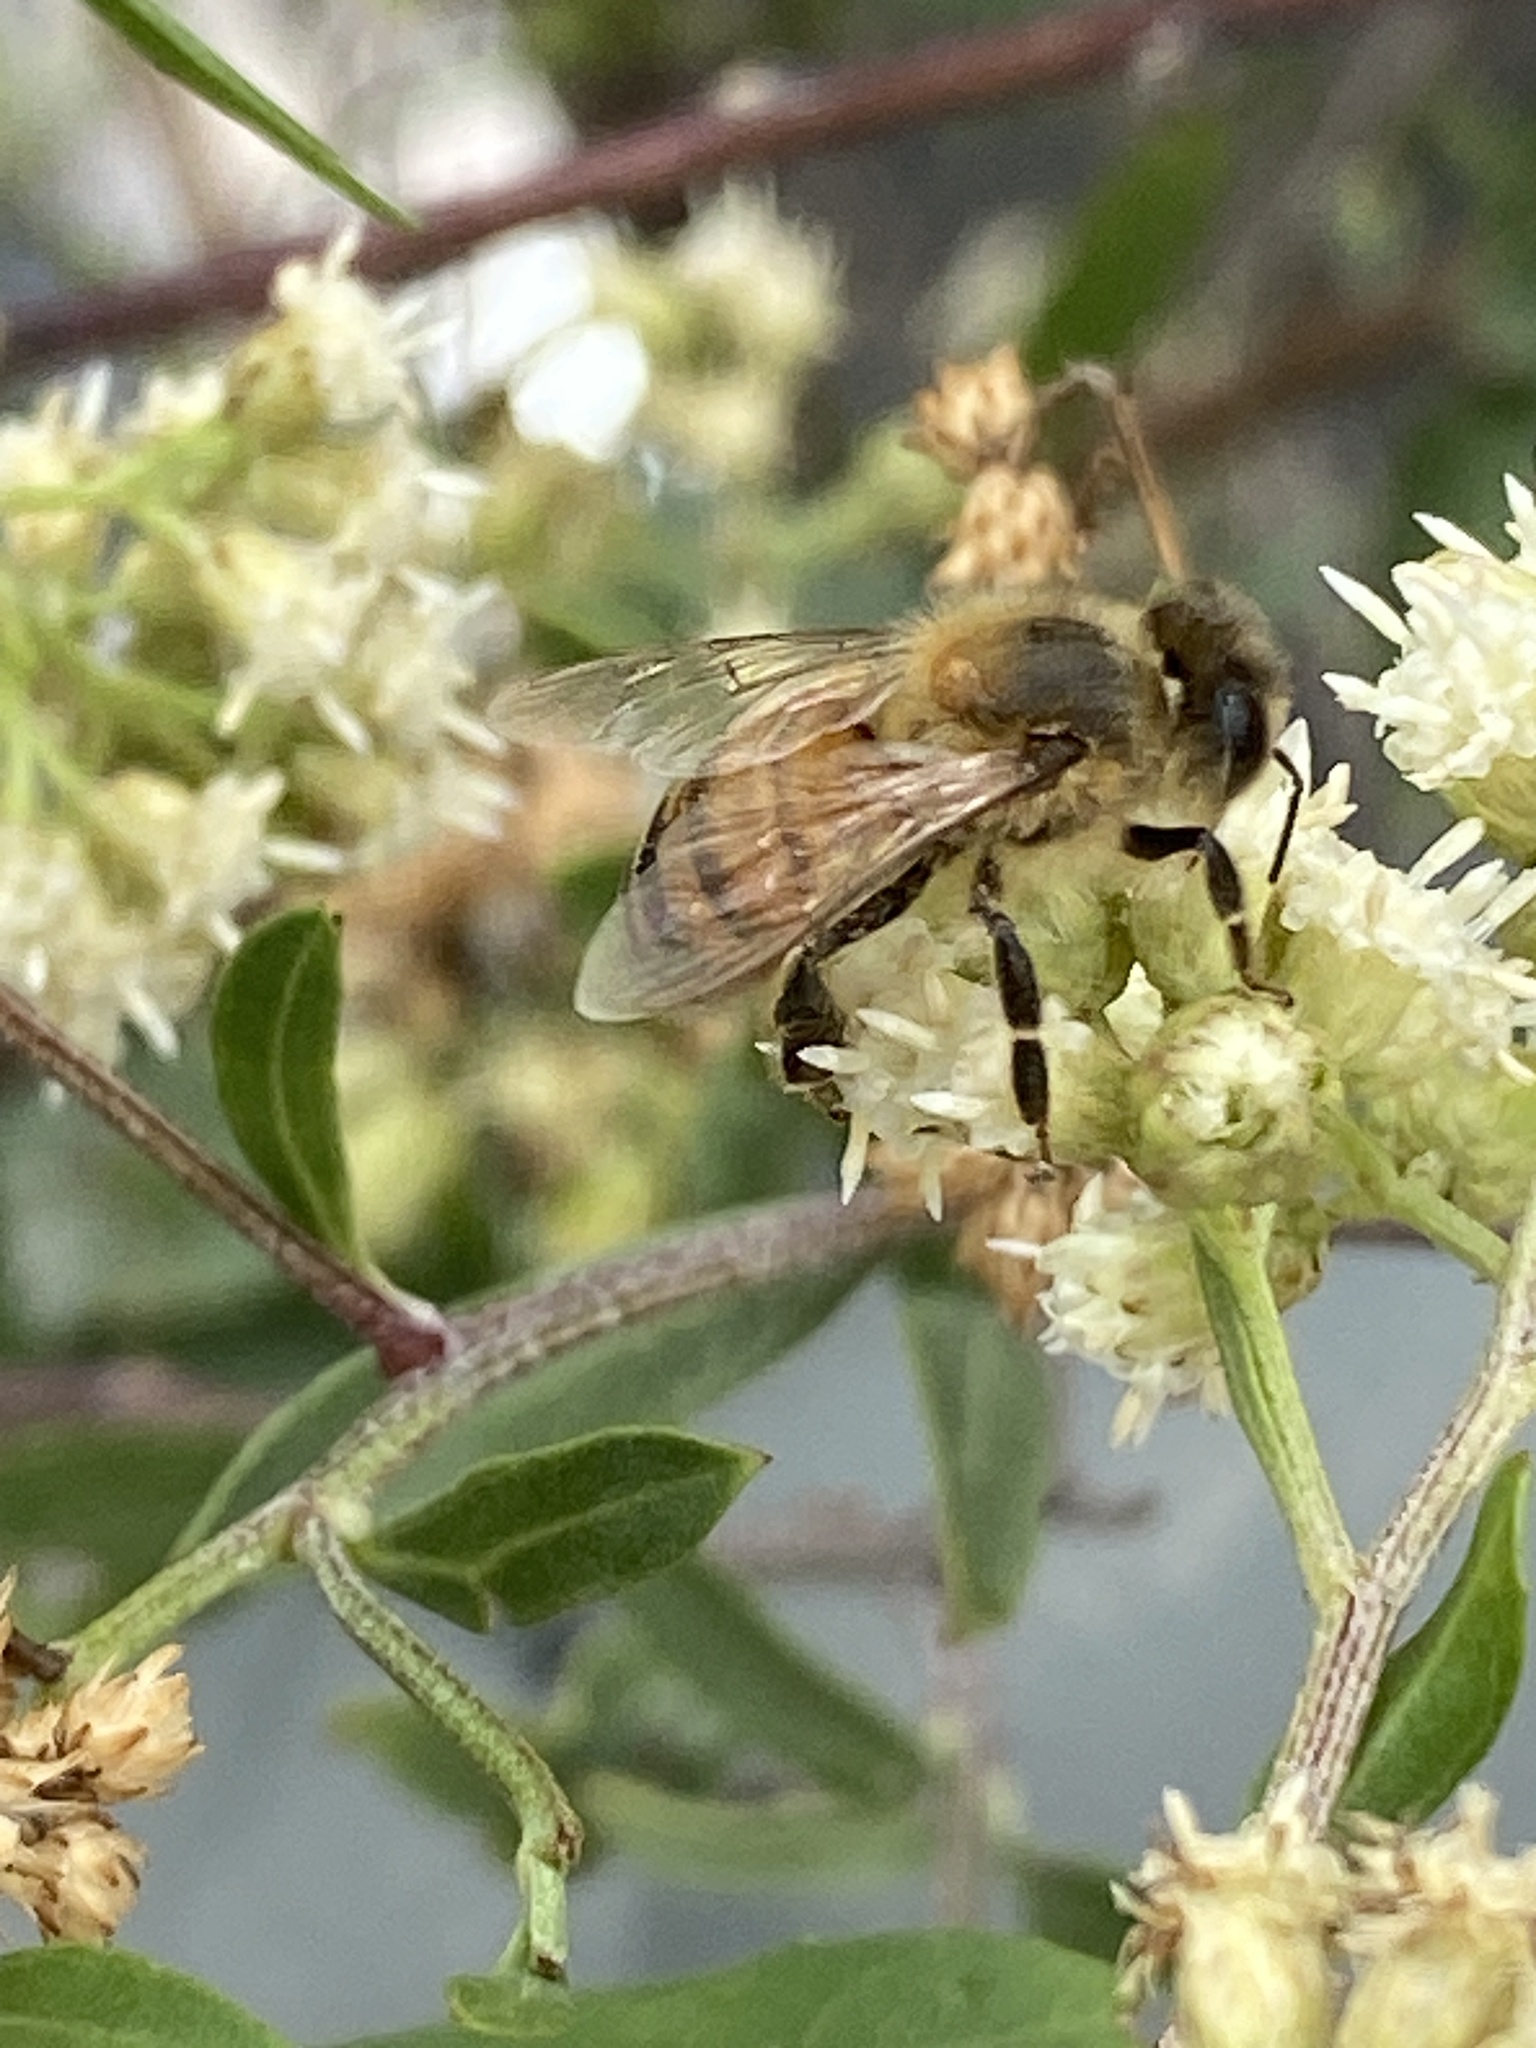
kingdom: Animalia
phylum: Arthropoda
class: Insecta
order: Hymenoptera
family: Apidae
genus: Apis
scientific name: Apis mellifera
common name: Honey bee
